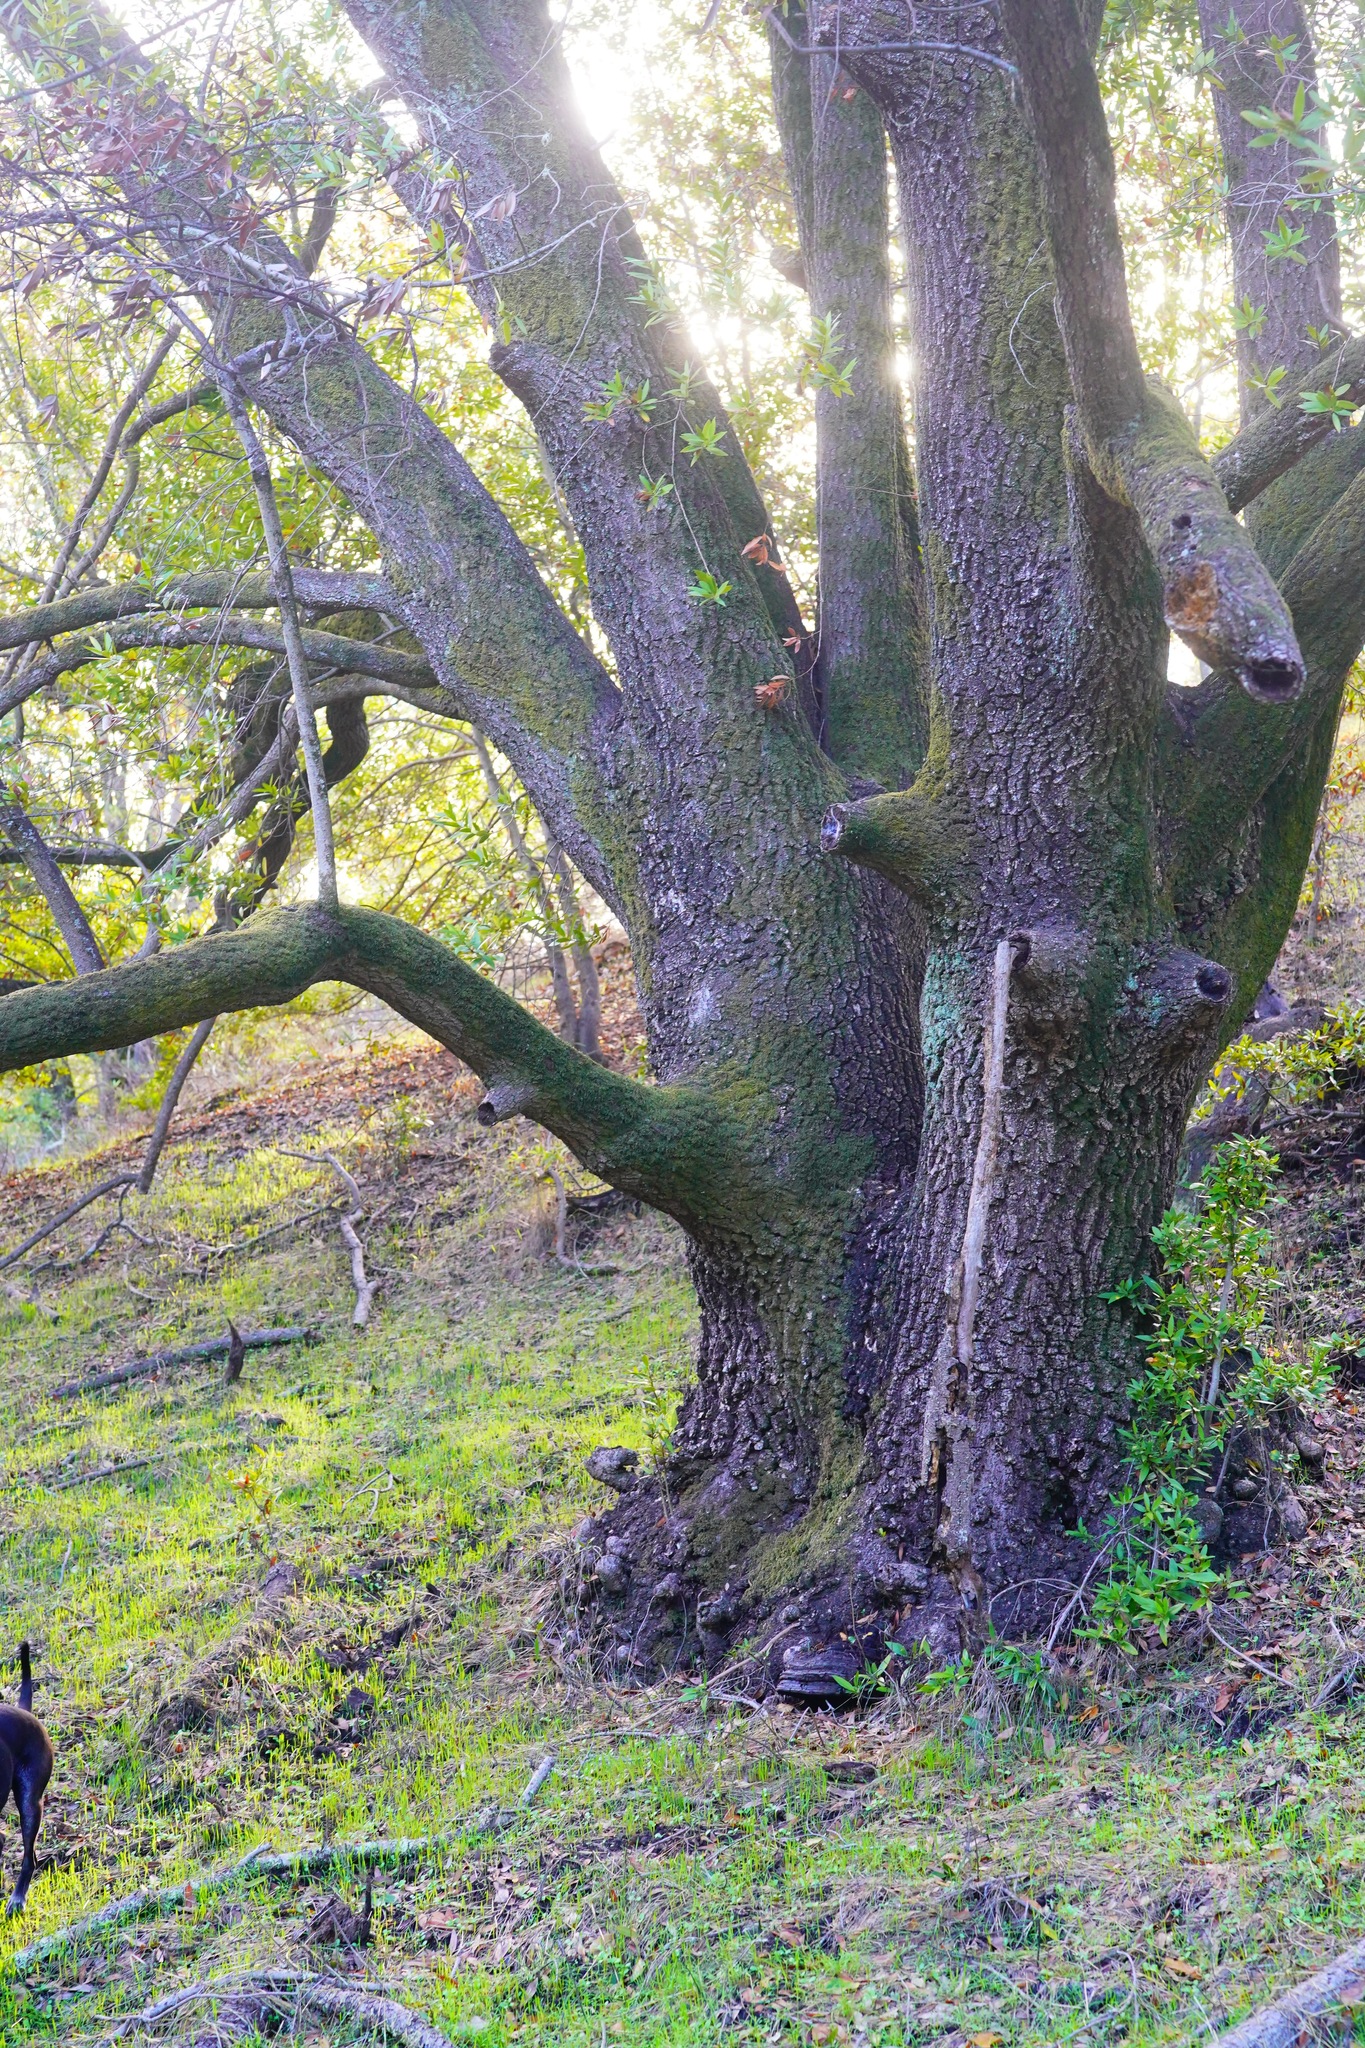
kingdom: Plantae
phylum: Tracheophyta
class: Magnoliopsida
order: Laurales
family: Lauraceae
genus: Umbellularia
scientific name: Umbellularia californica
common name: California bay
